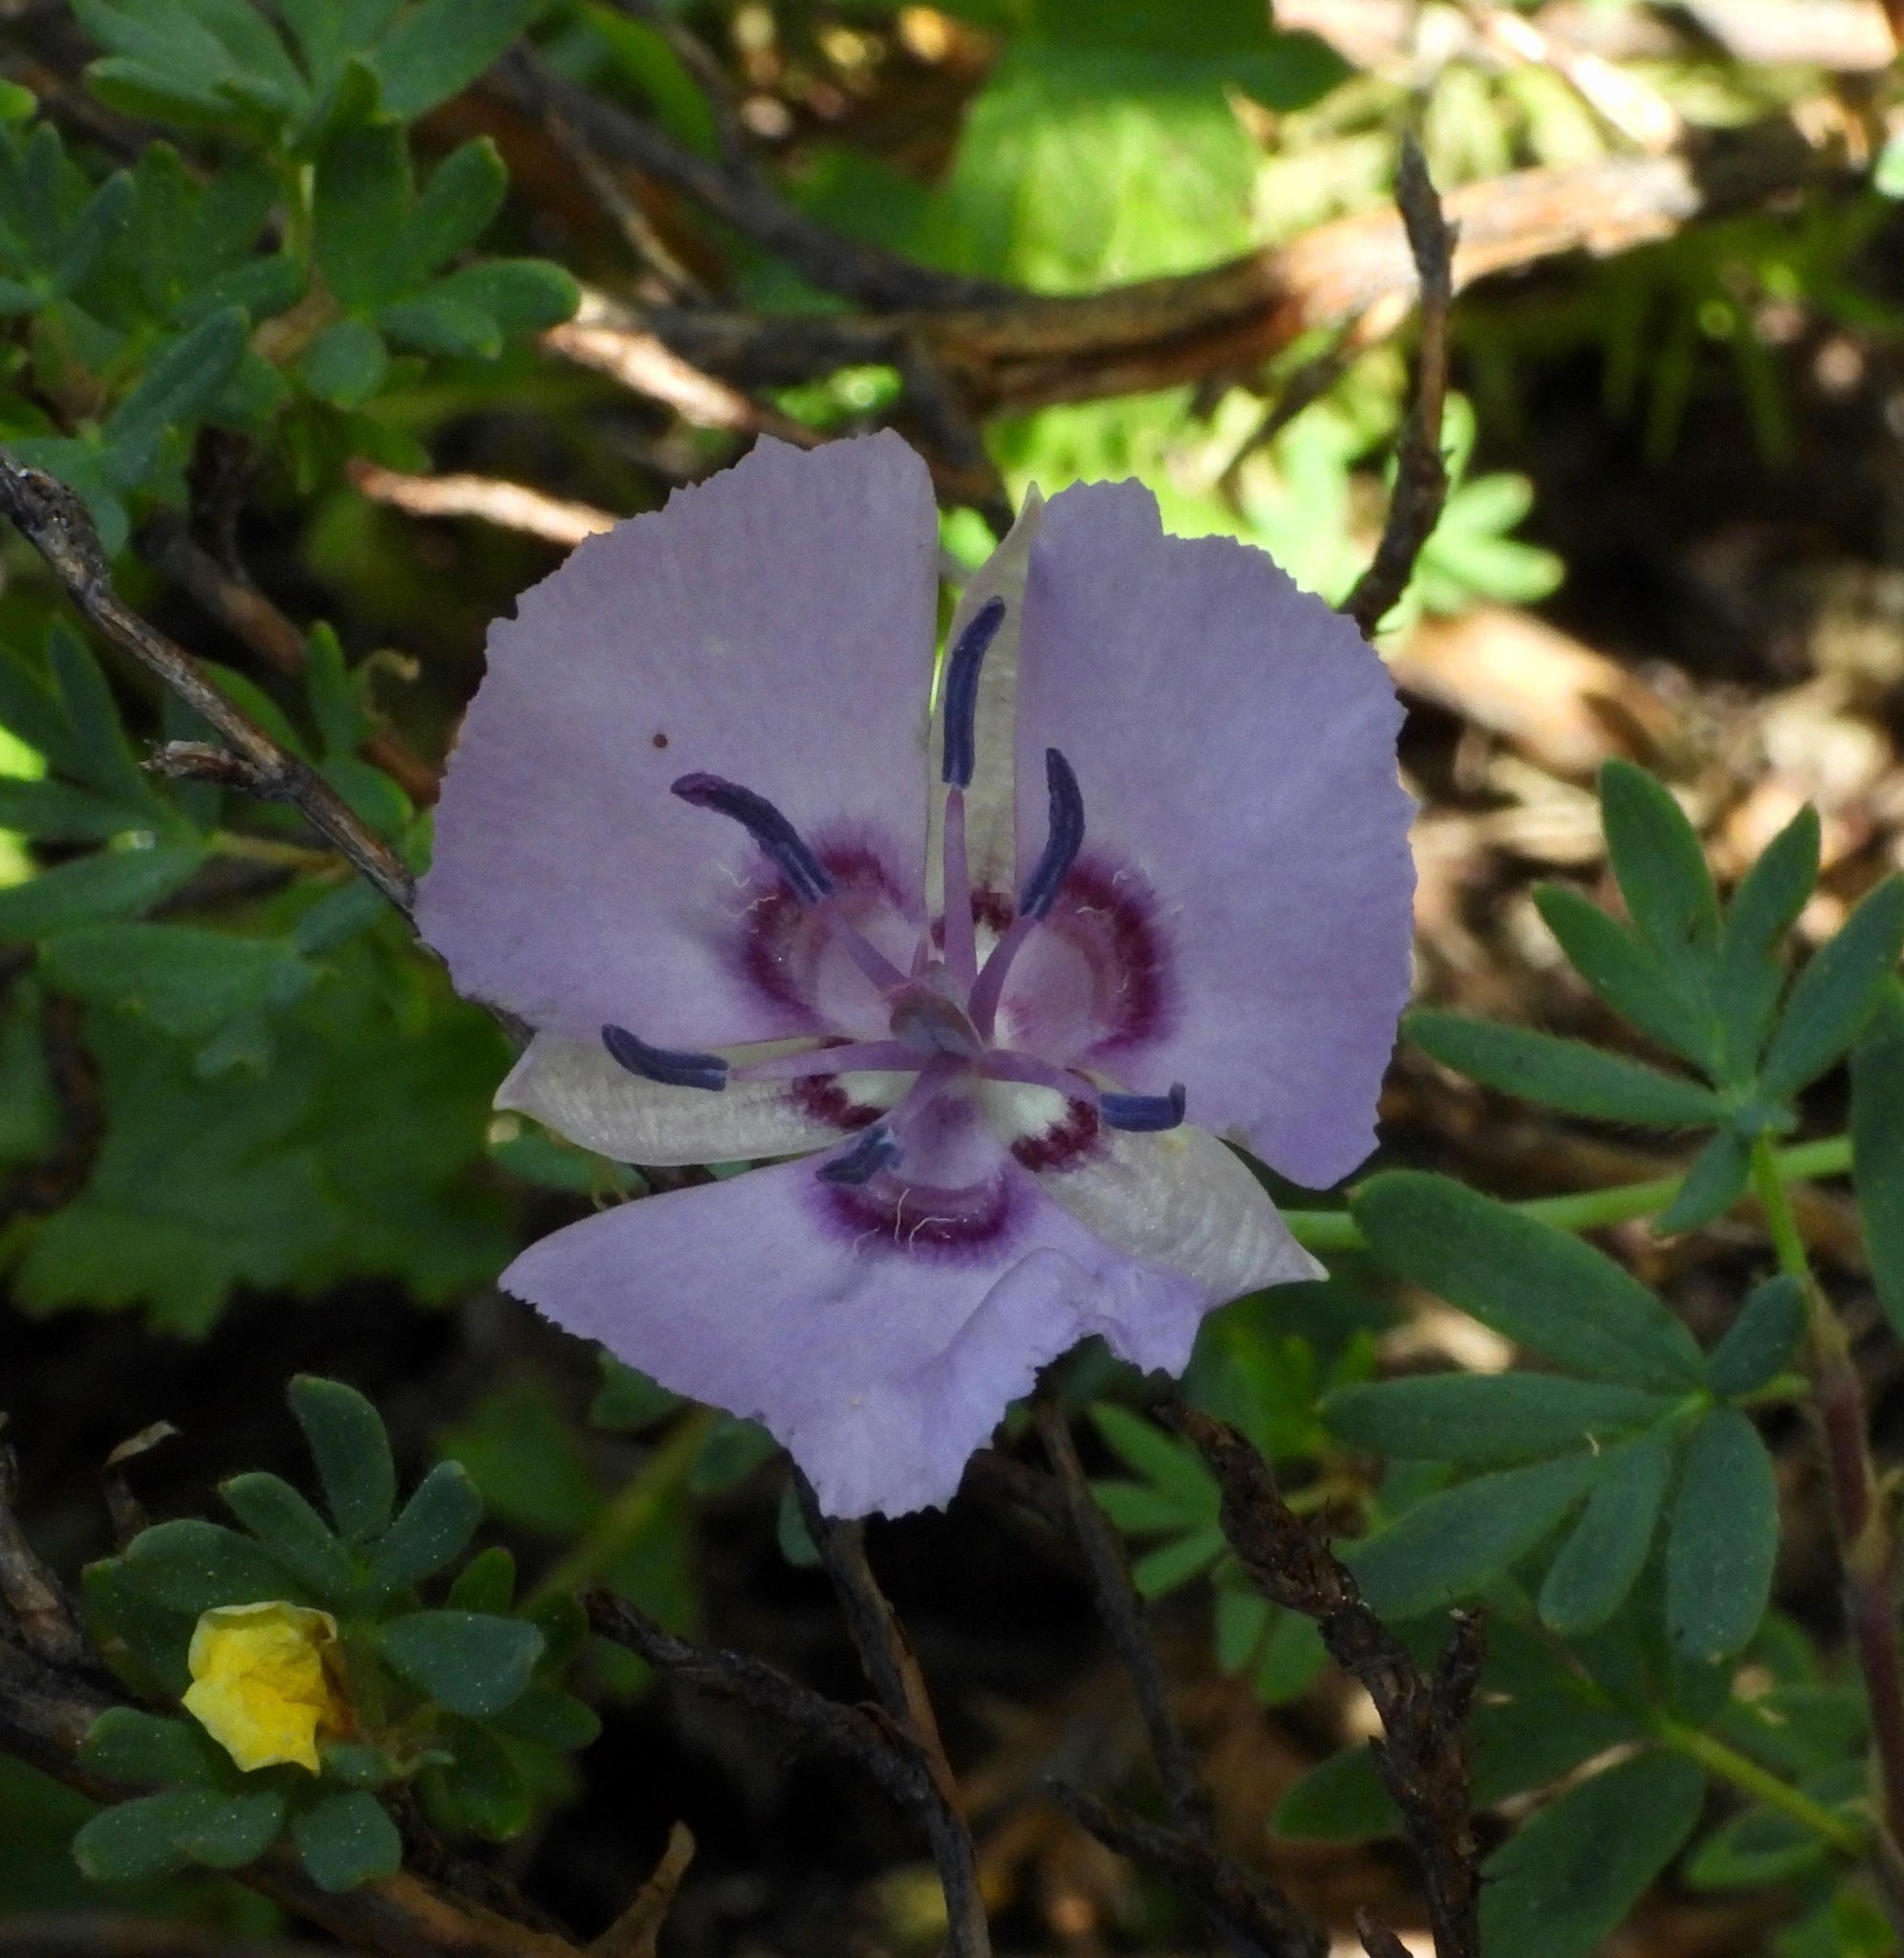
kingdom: Plantae
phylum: Tracheophyta
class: Liliopsida
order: Liliales
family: Liliaceae
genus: Calochortus
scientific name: Calochortus nudus
